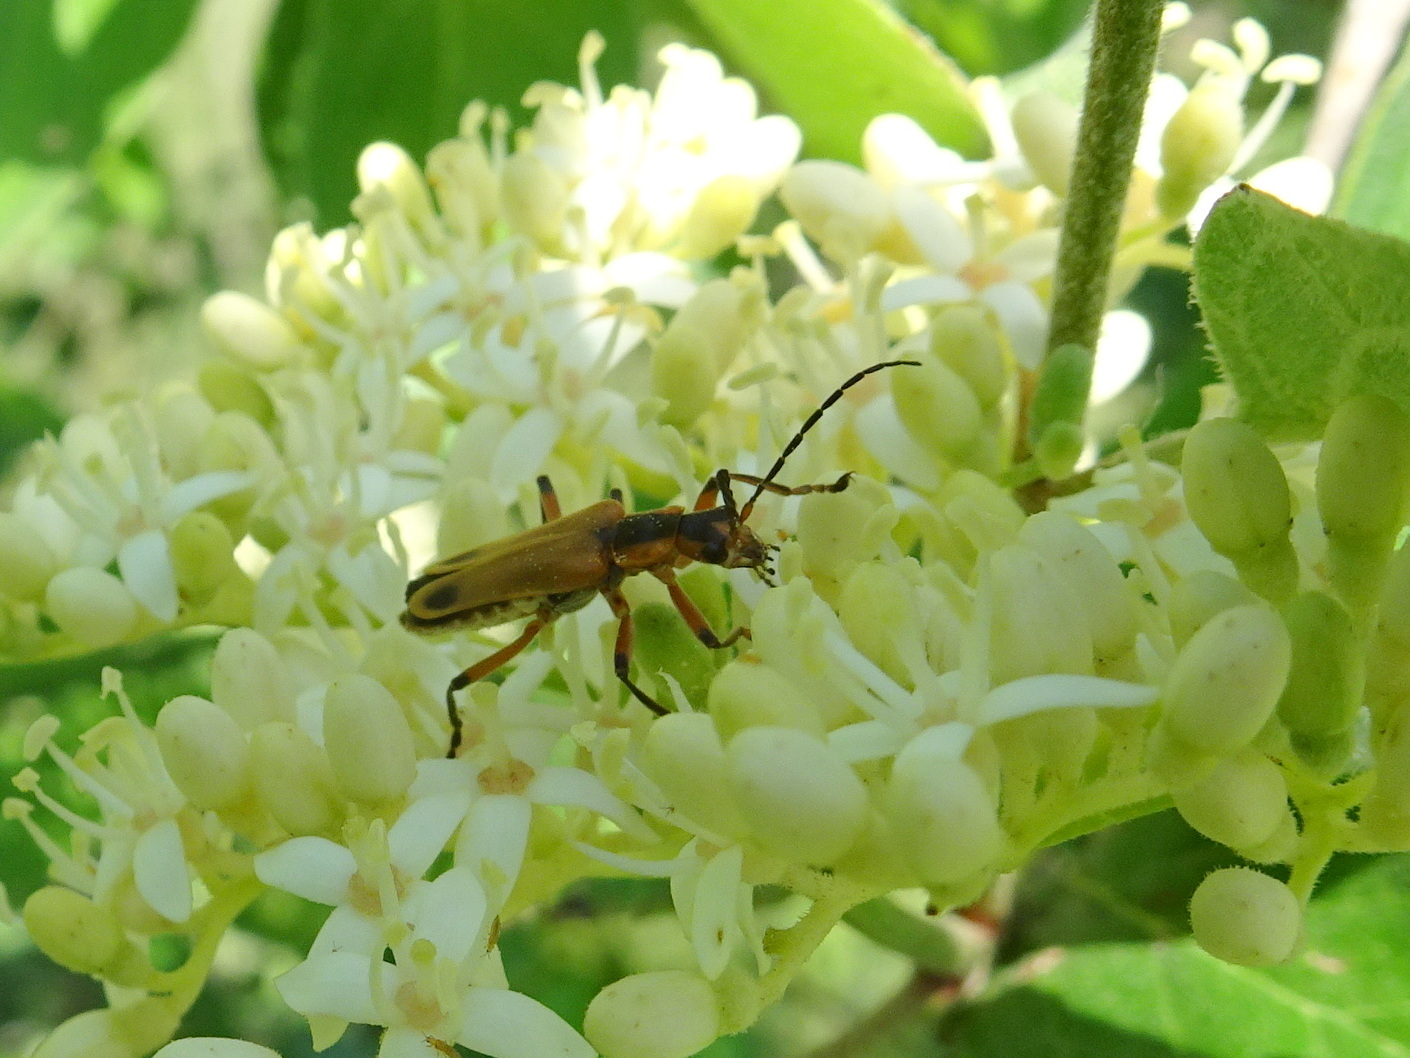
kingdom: Animalia
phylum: Arthropoda
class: Insecta
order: Coleoptera
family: Cantharidae
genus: Chauliognathus
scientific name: Chauliognathus marginatus
